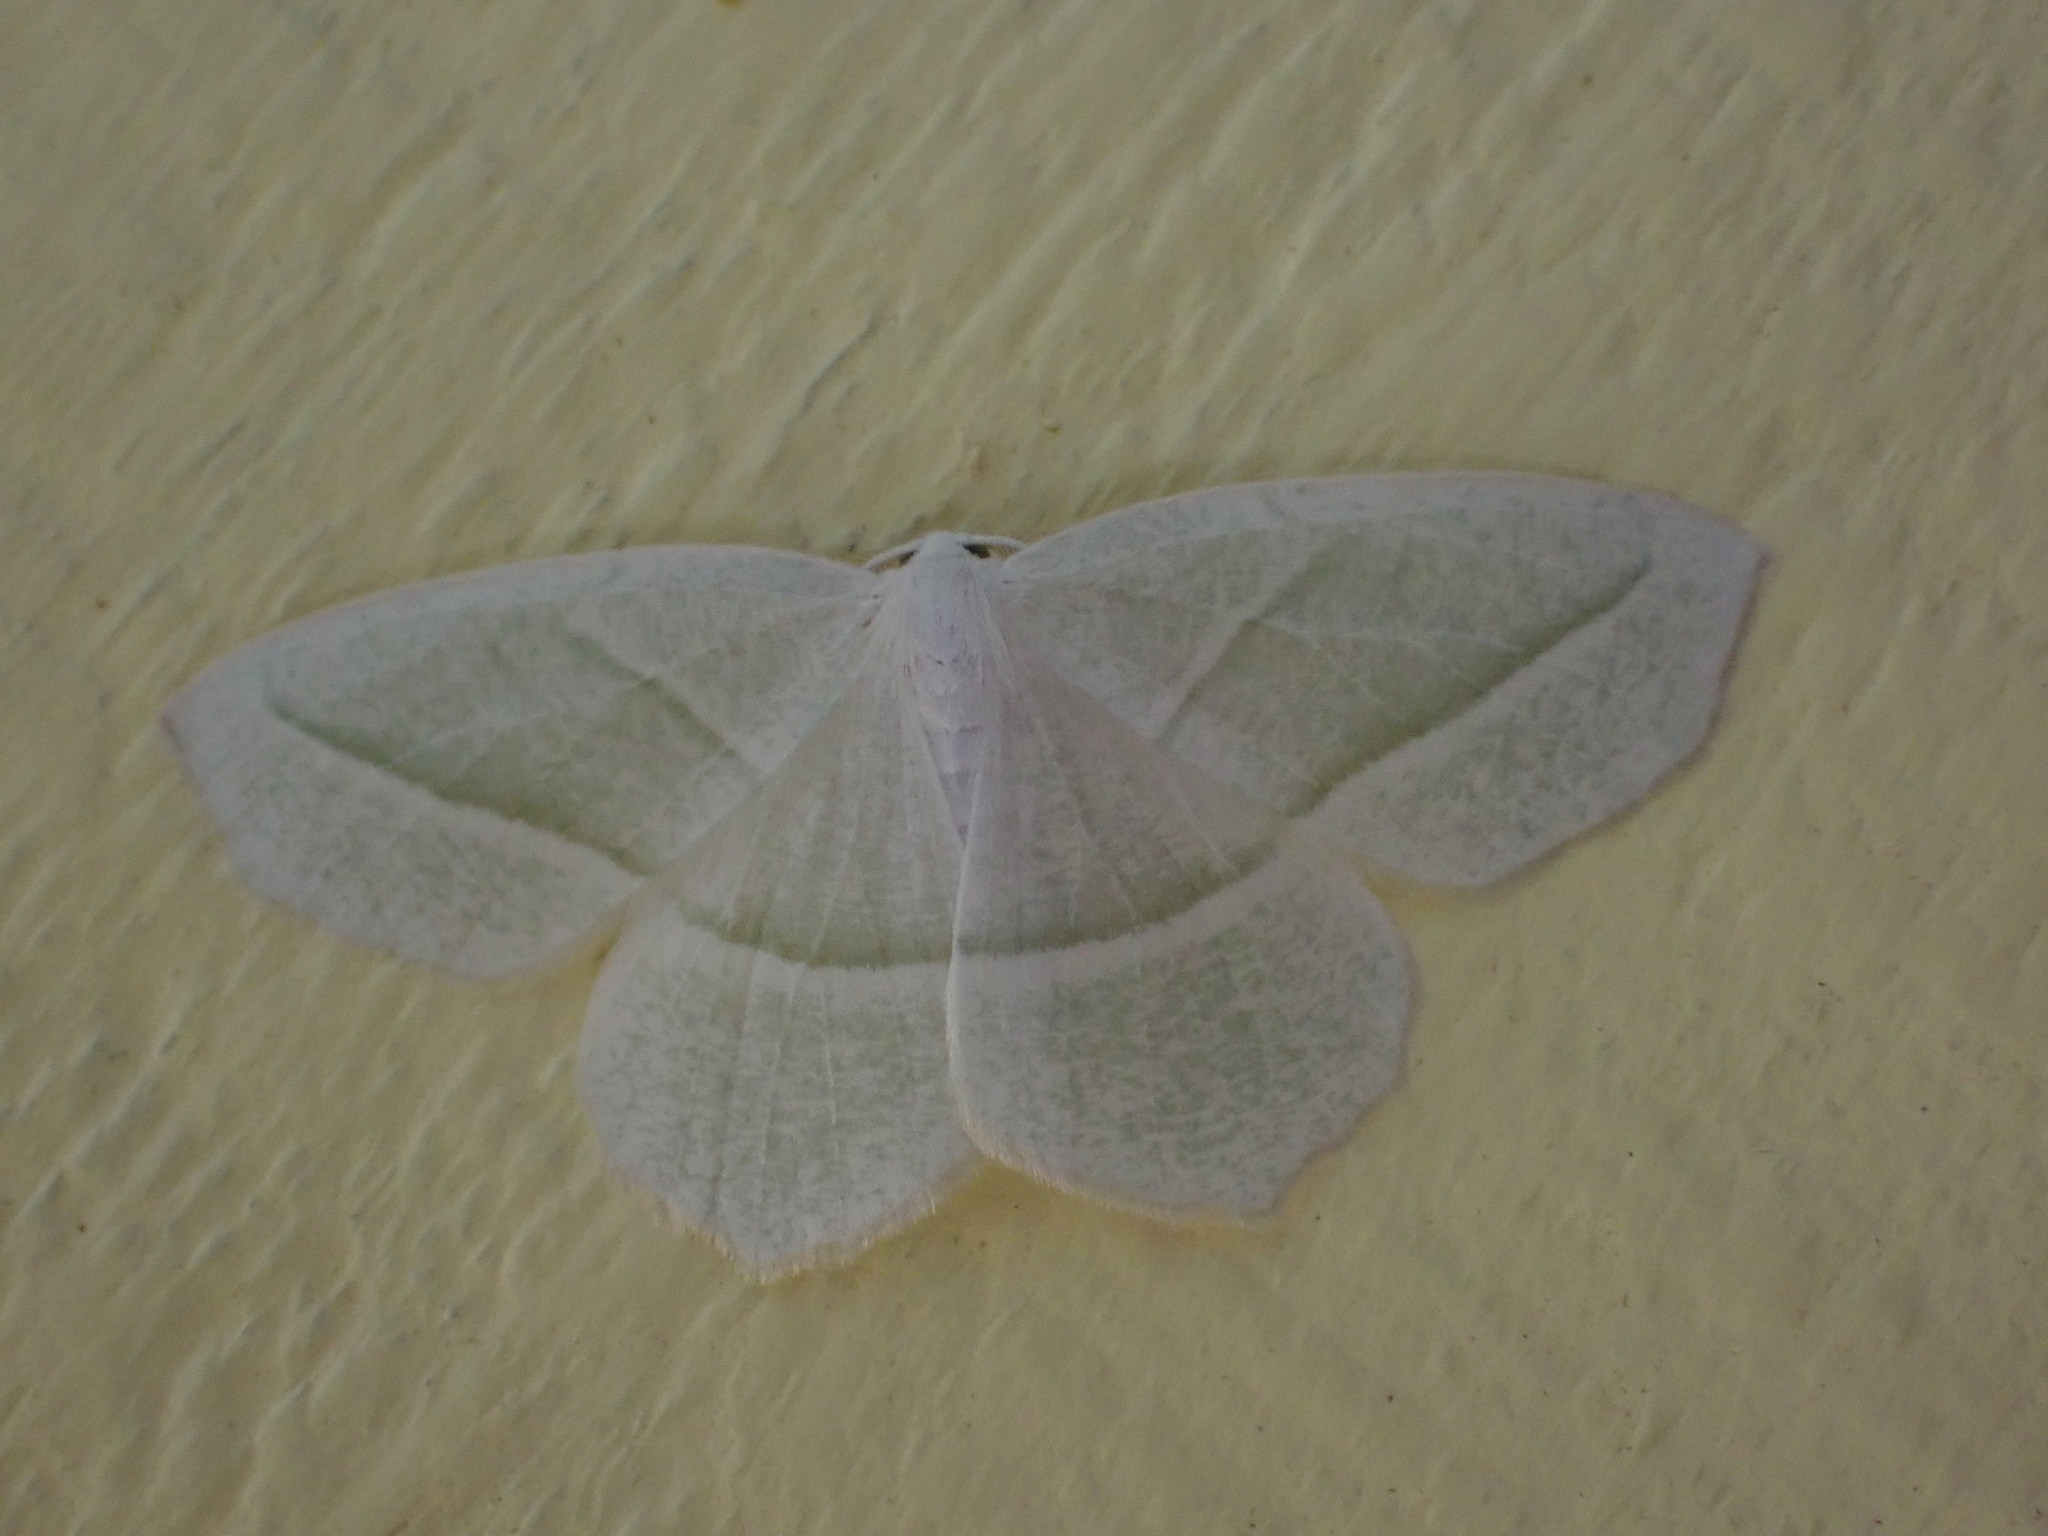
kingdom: Animalia
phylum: Arthropoda
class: Insecta
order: Lepidoptera
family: Geometridae
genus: Campaea
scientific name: Campaea perlata
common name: Fringed looper
